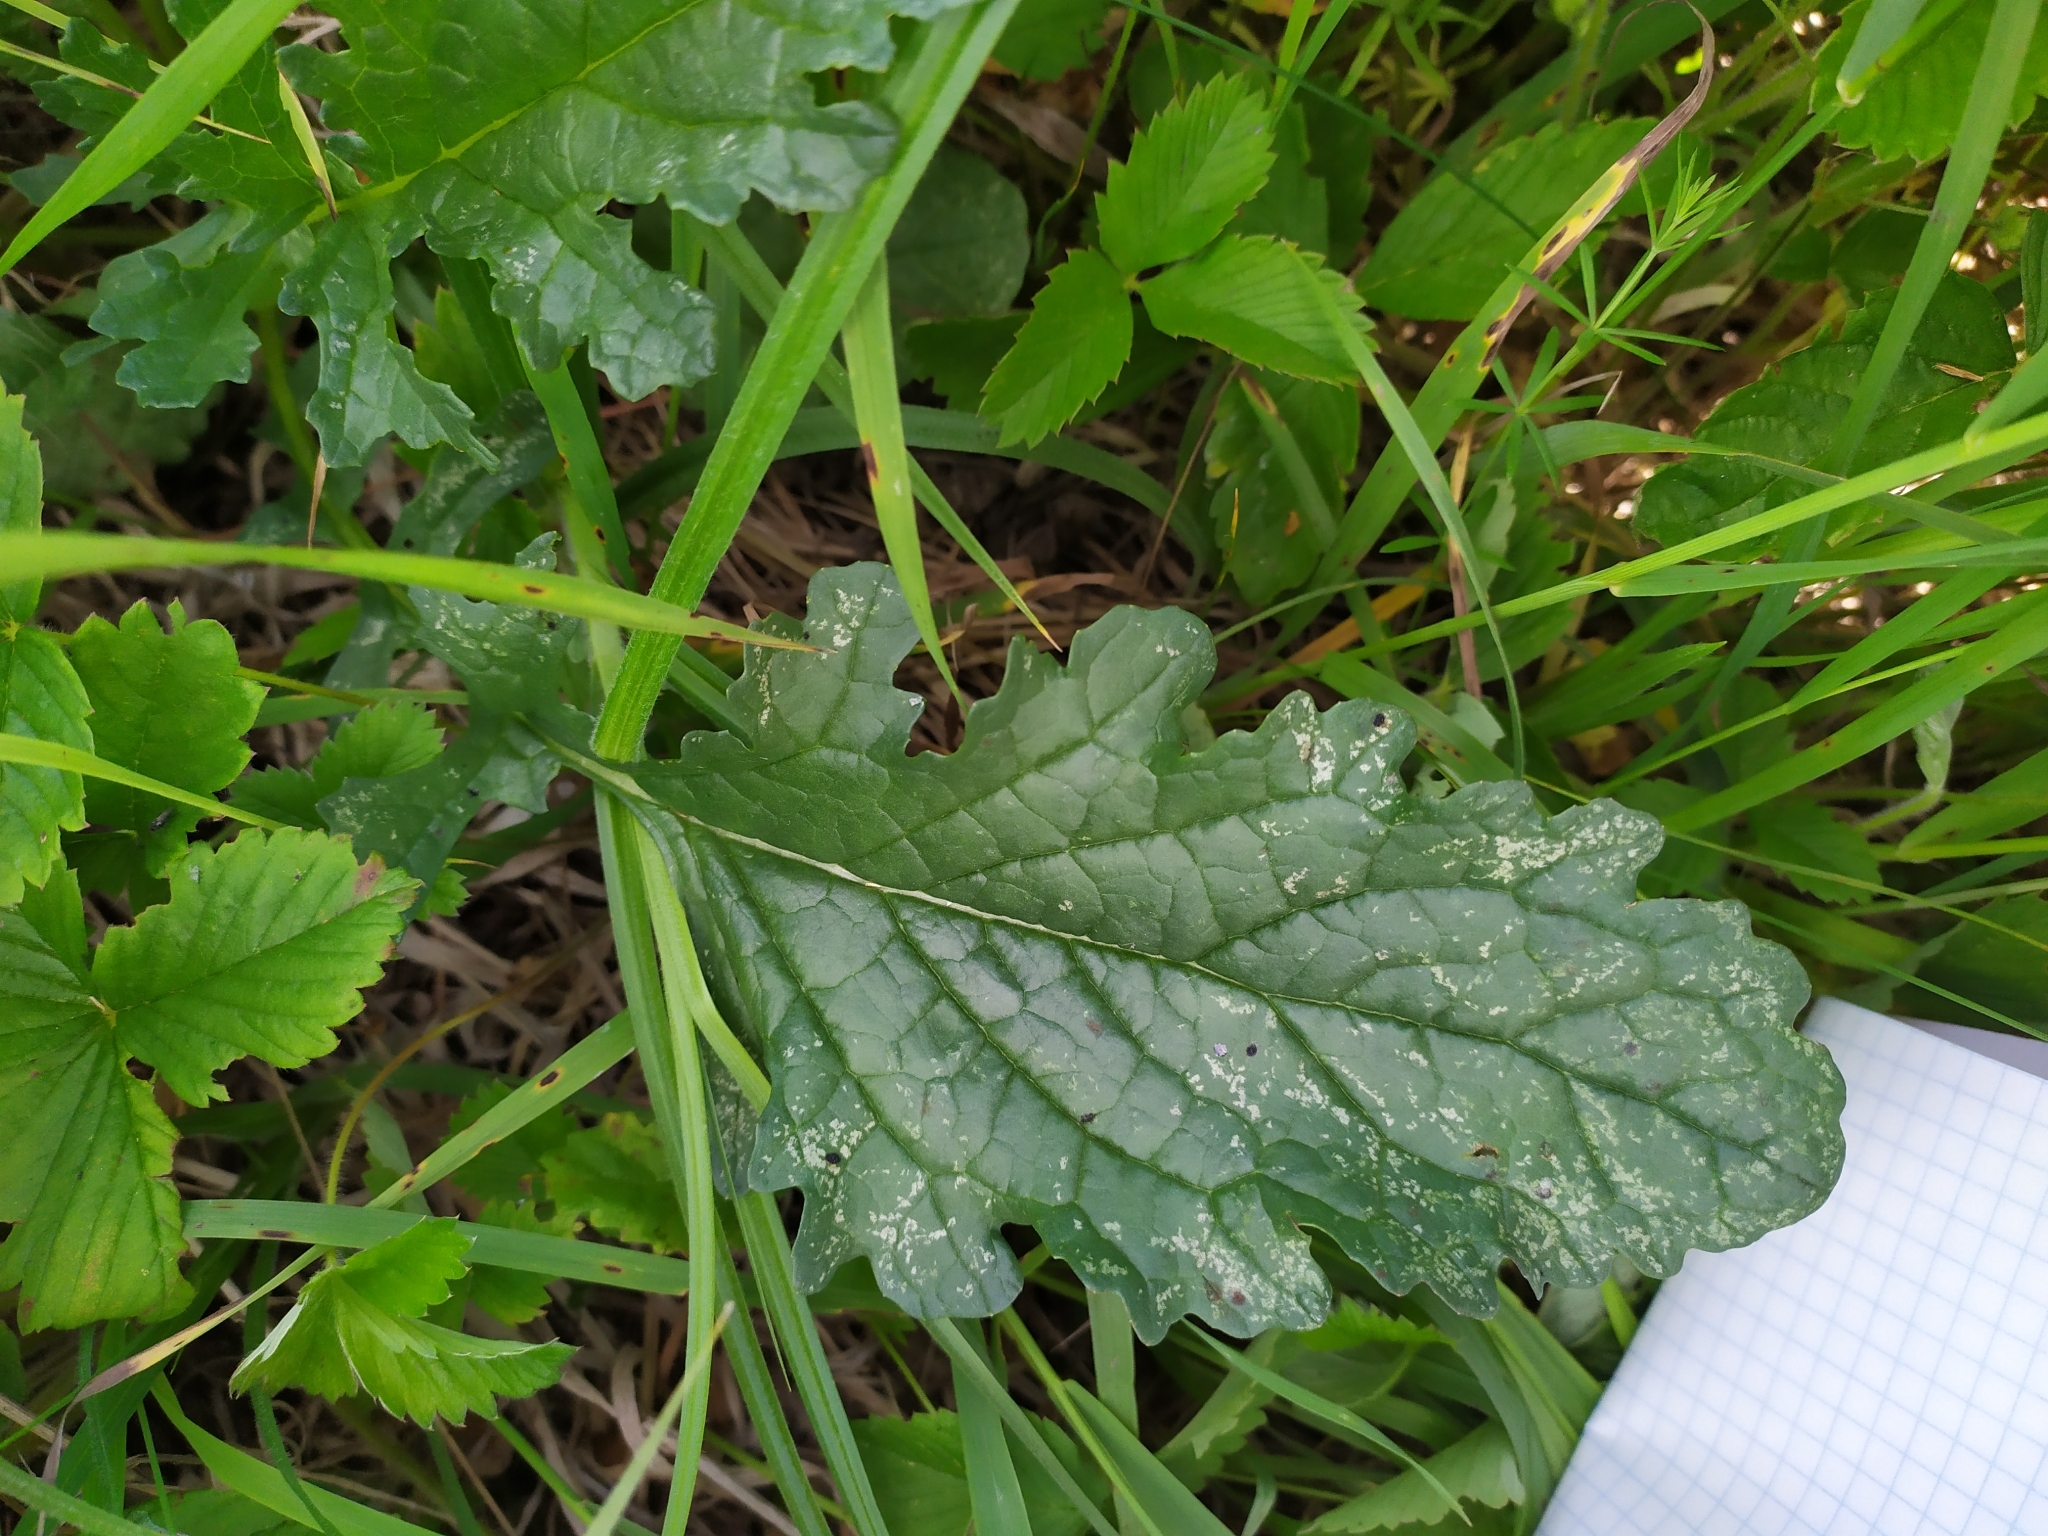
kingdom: Plantae
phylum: Tracheophyta
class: Magnoliopsida
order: Asterales
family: Asteraceae
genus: Jacobaea
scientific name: Jacobaea vulgaris
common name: Stinking willie
